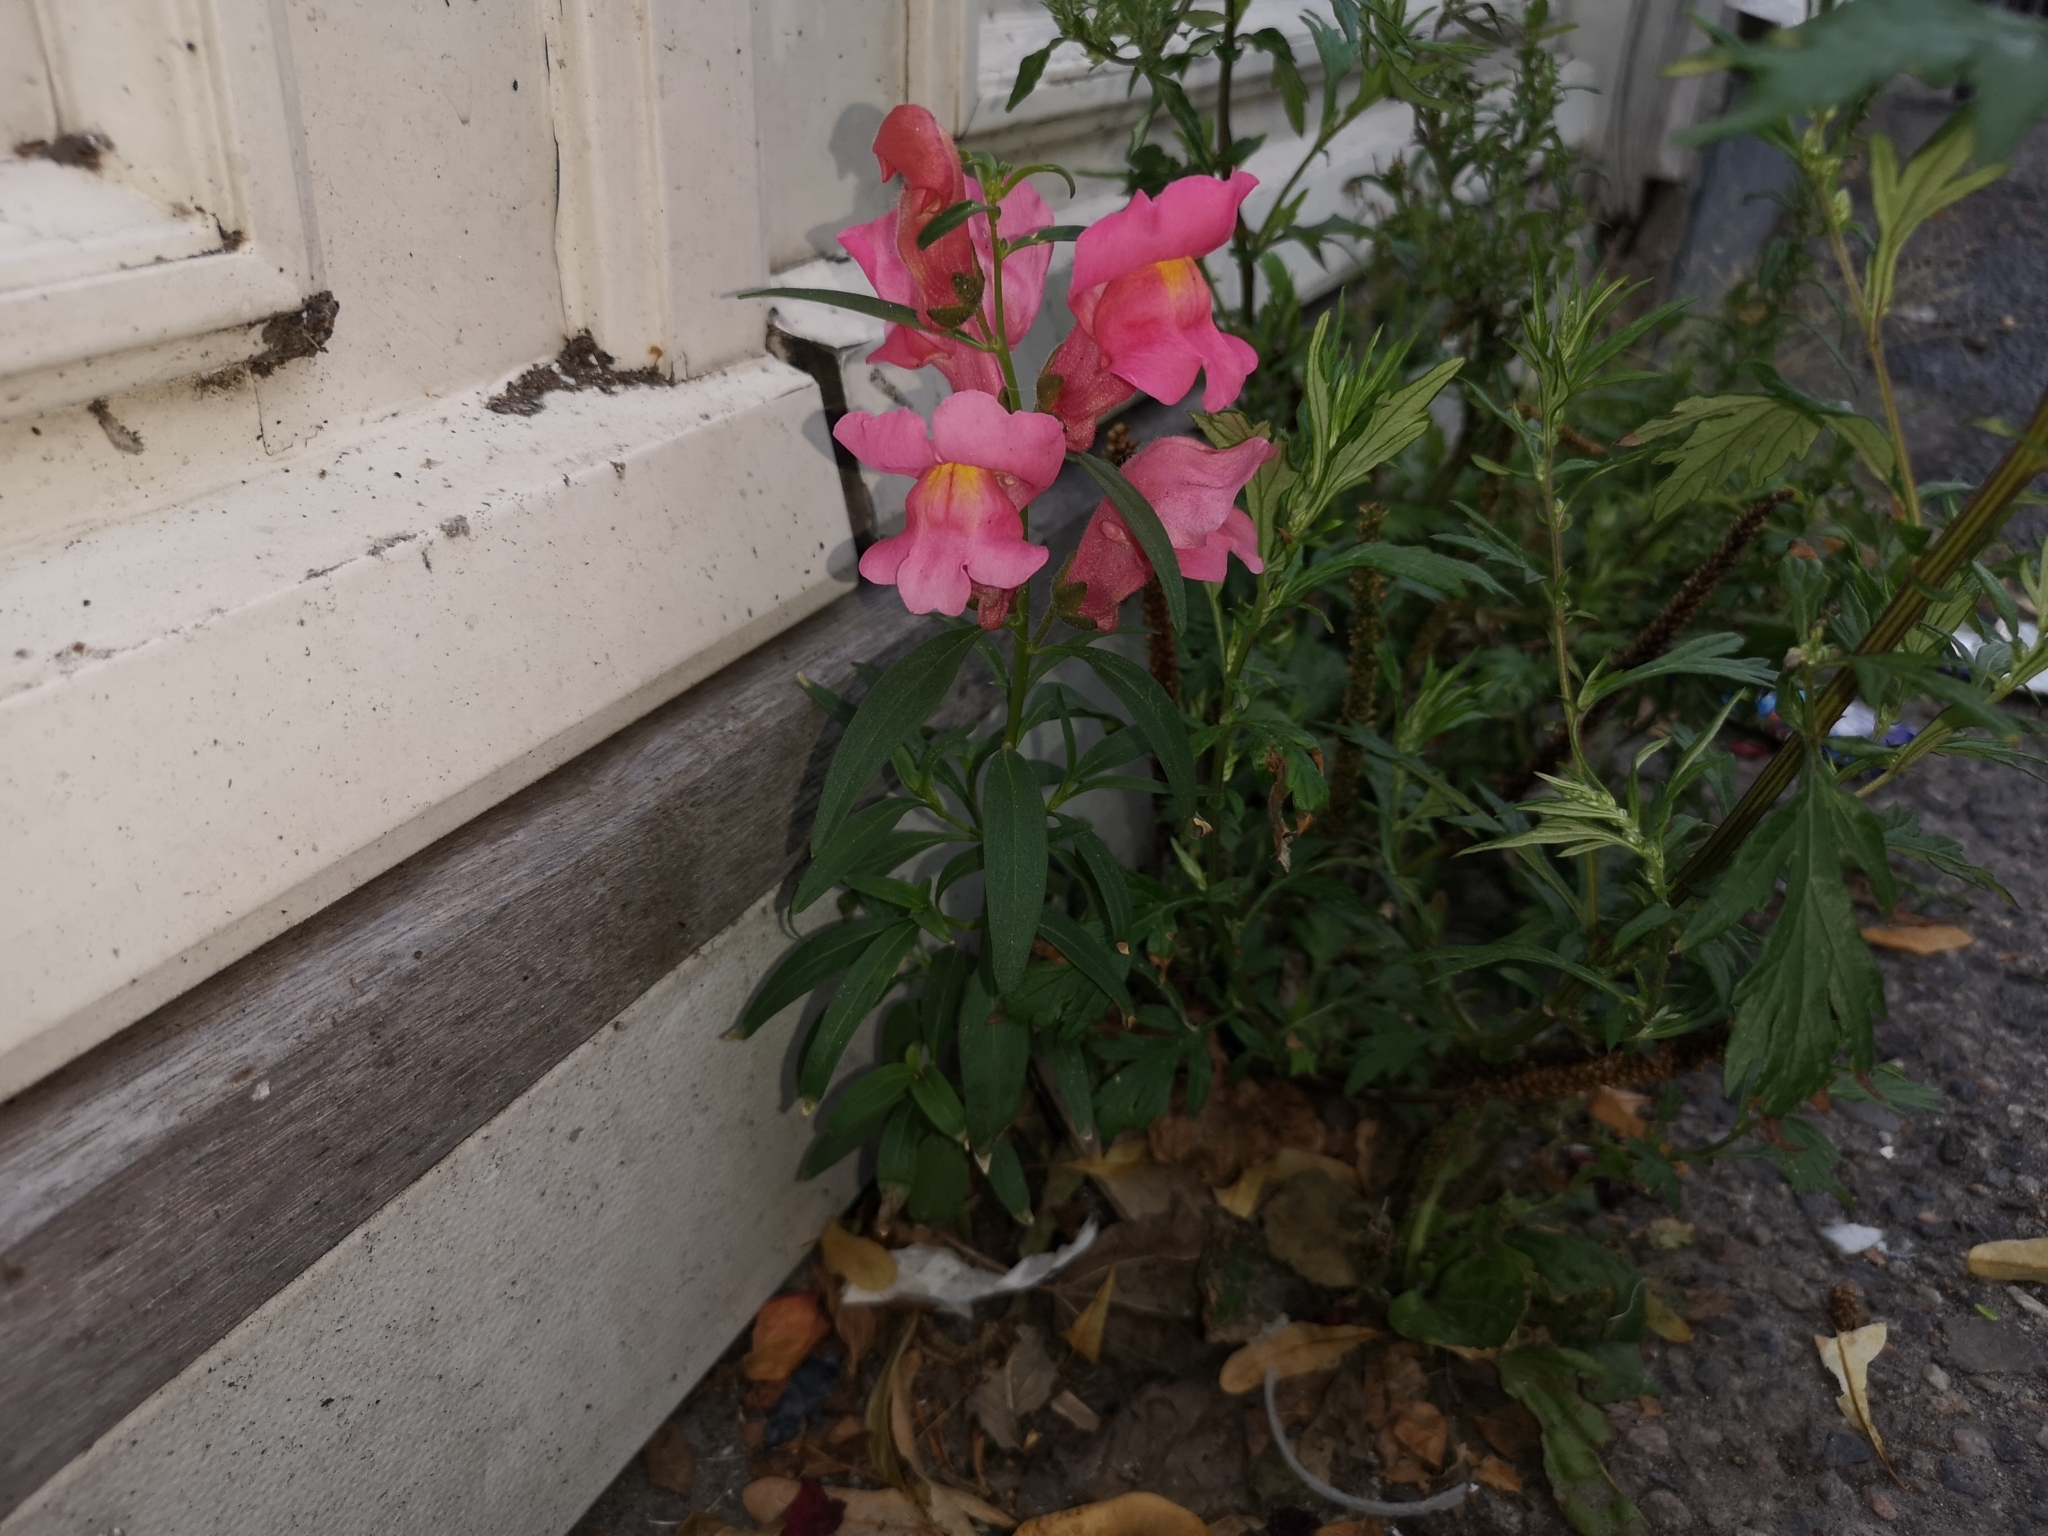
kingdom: Plantae
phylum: Tracheophyta
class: Magnoliopsida
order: Lamiales
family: Plantaginaceae
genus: Antirrhinum
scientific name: Antirrhinum majus
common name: Snapdragon
